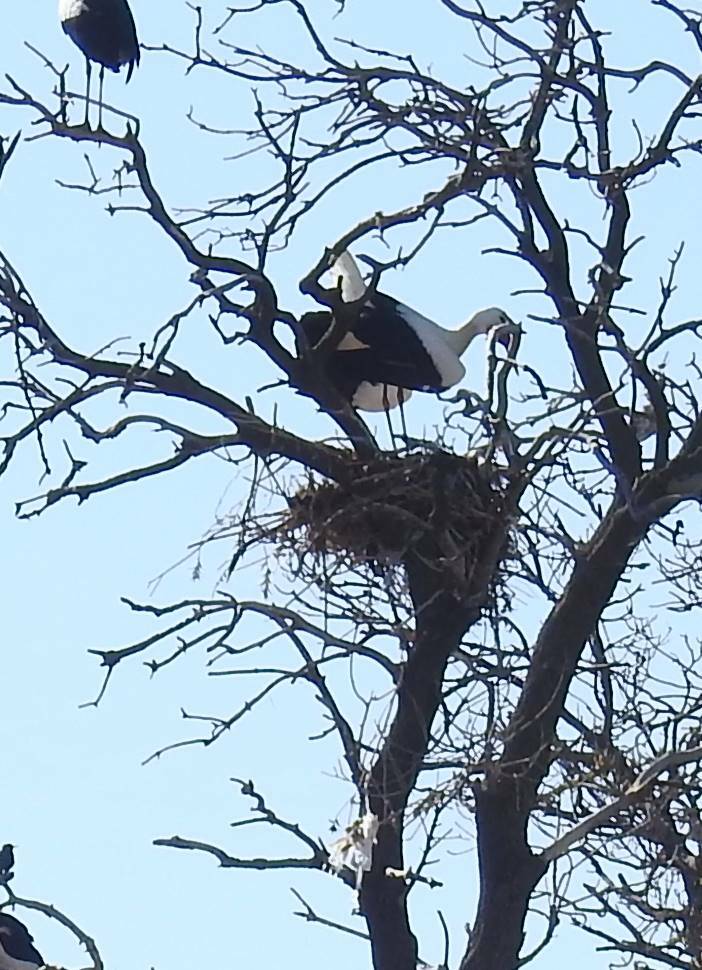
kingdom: Animalia
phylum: Chordata
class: Aves
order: Ciconiiformes
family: Ciconiidae
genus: Ciconia
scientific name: Ciconia ciconia
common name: White stork
